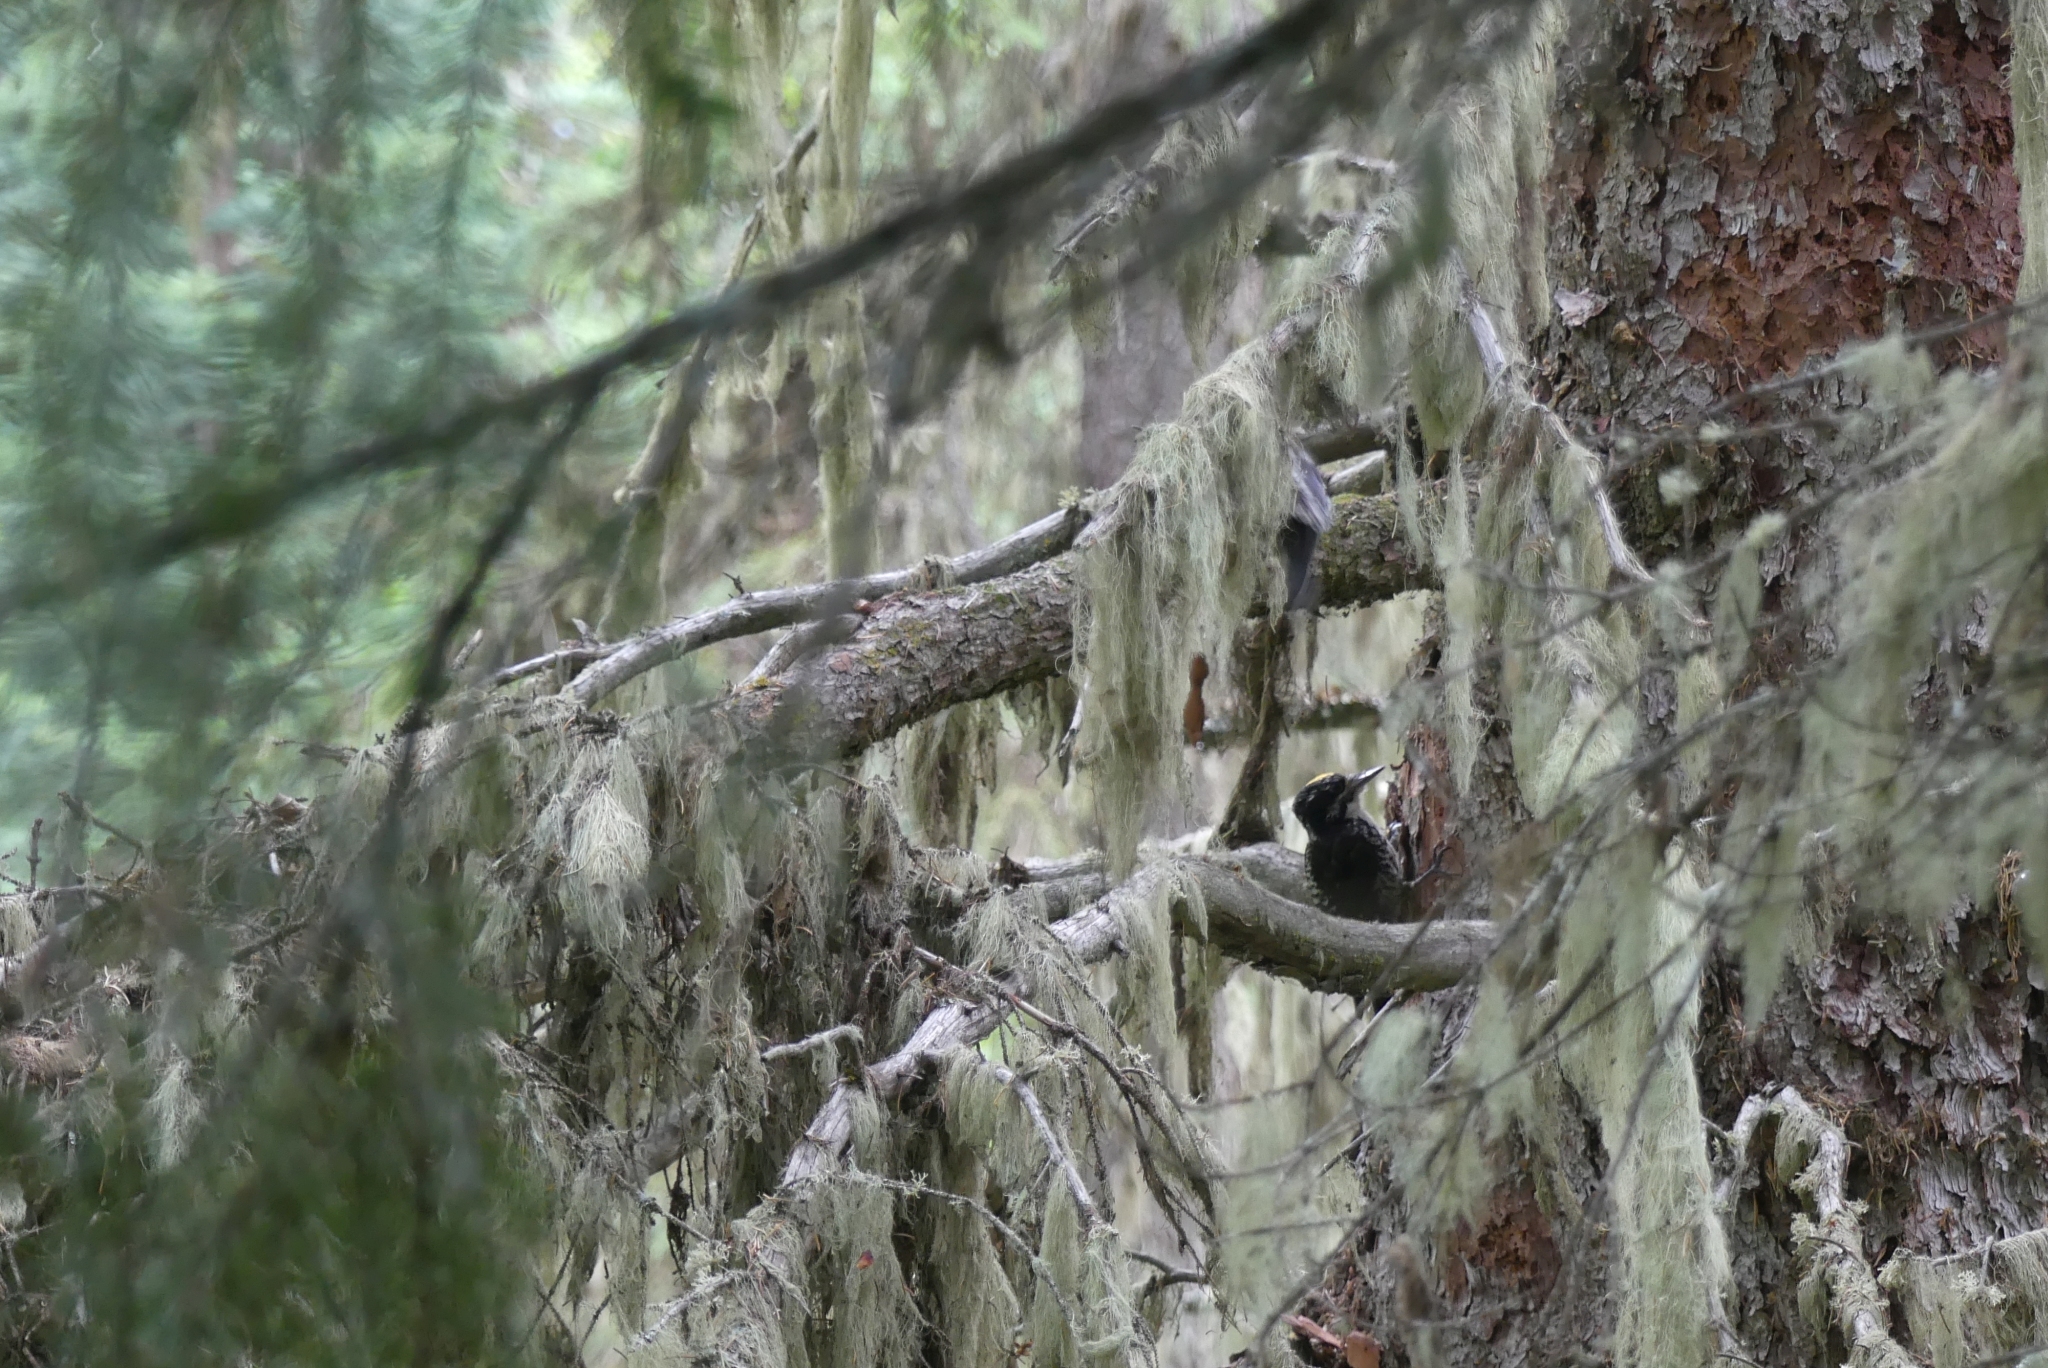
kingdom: Animalia
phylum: Chordata
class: Aves
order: Piciformes
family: Picidae
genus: Picoides
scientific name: Picoides dorsalis
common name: American three-toed woodpecker
